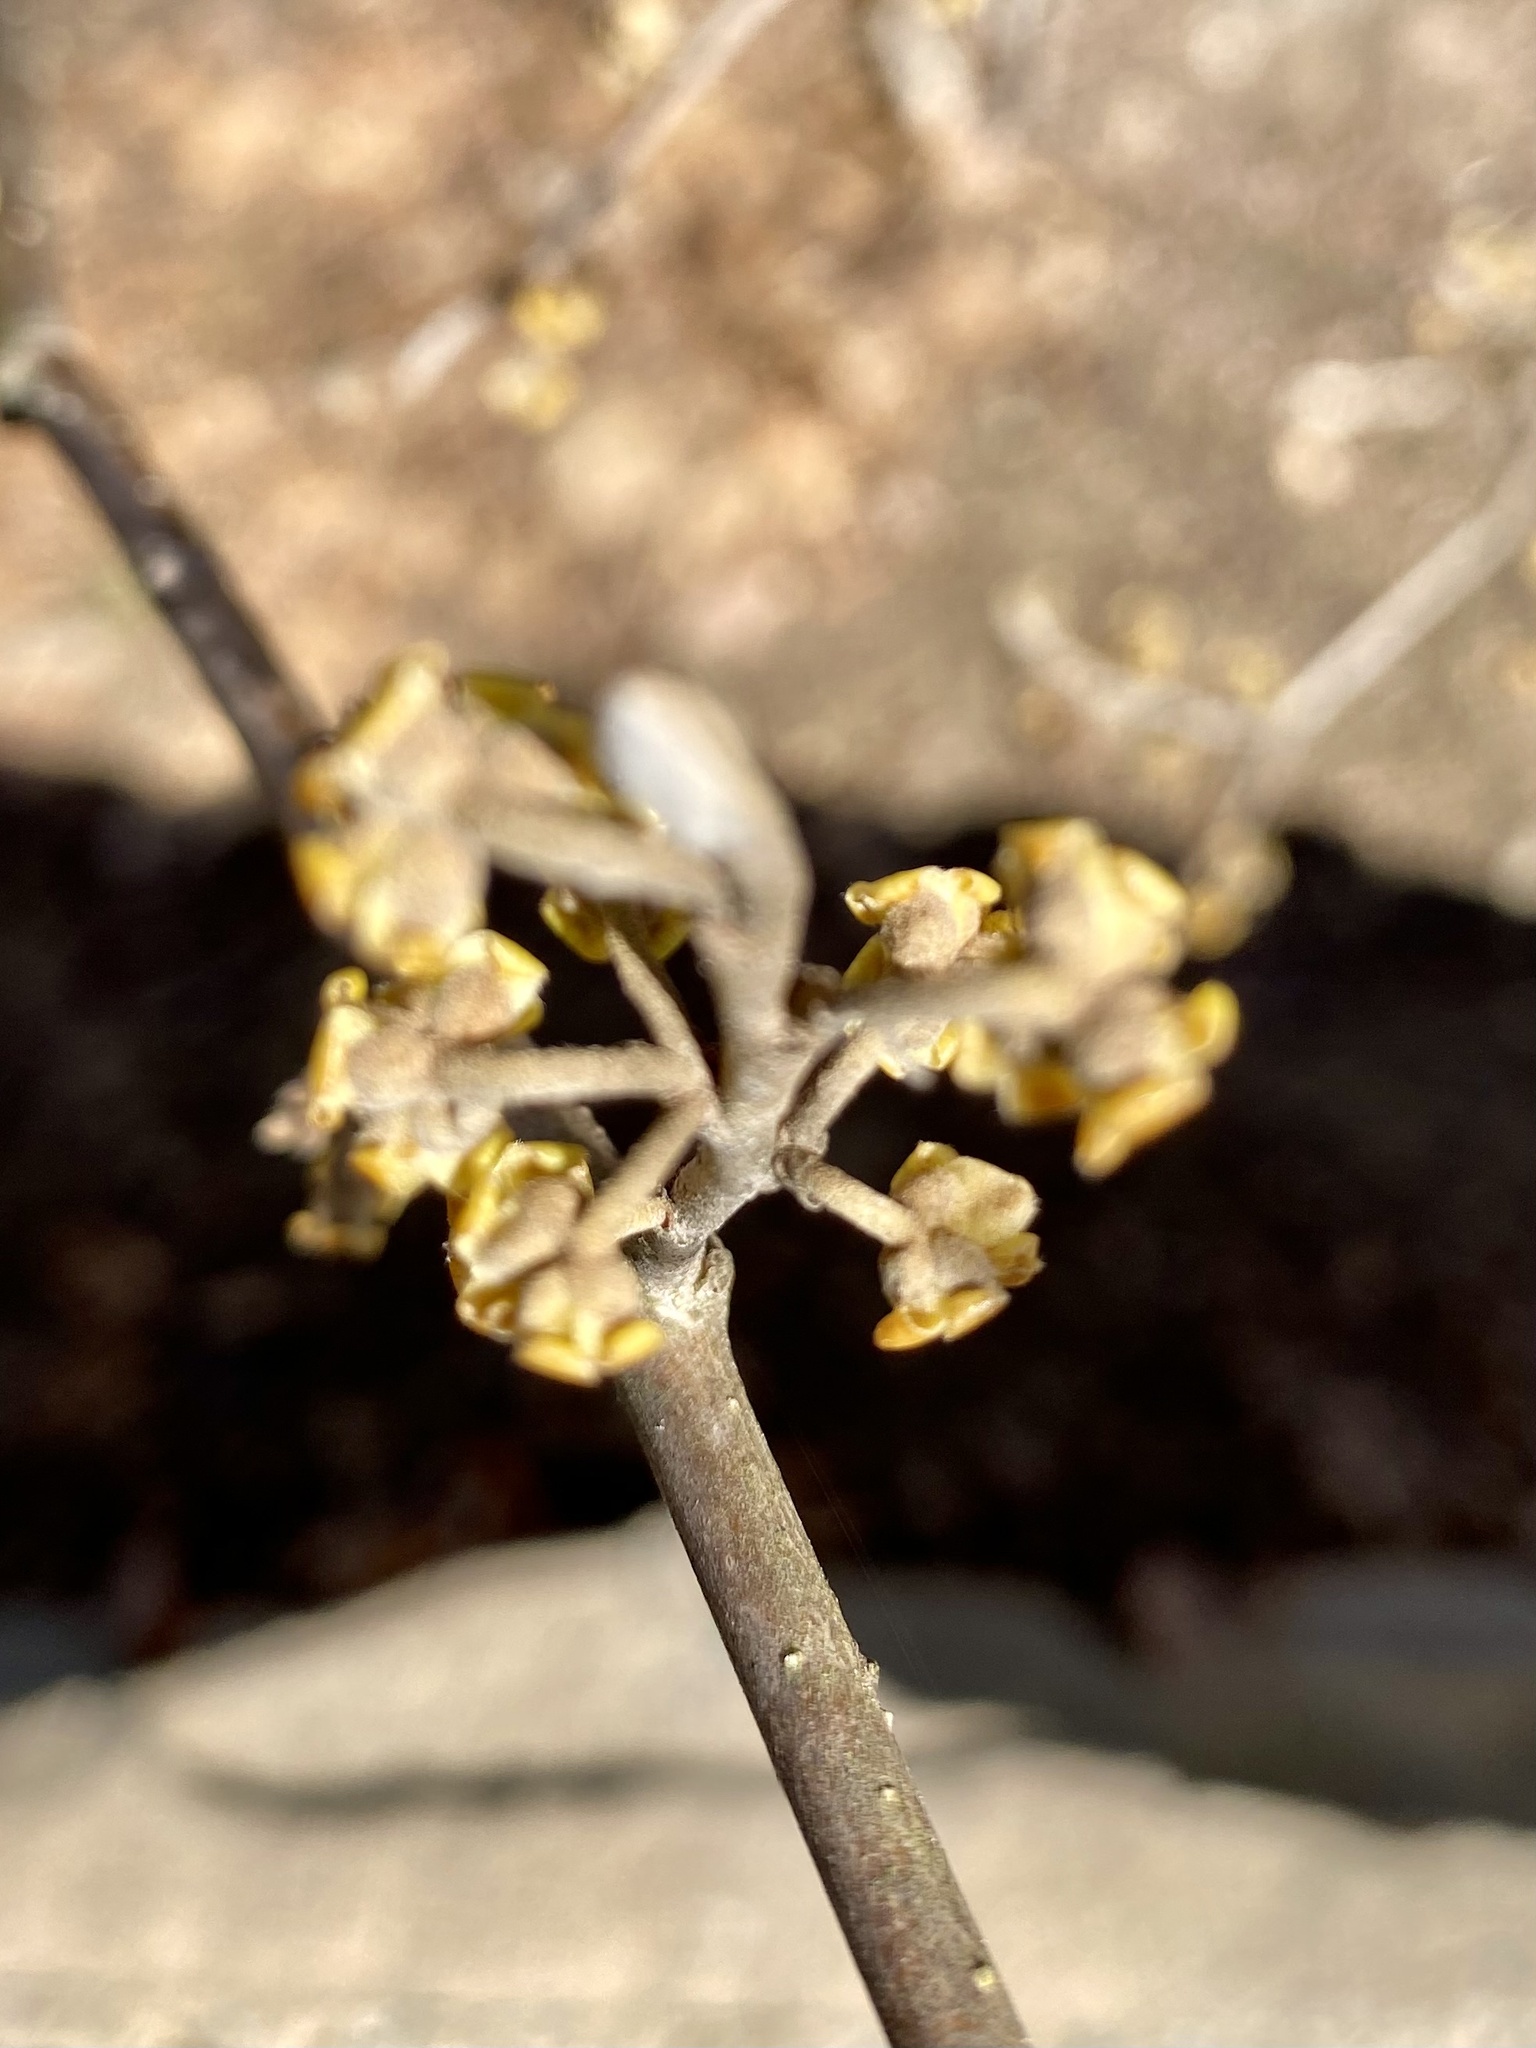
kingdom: Plantae
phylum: Tracheophyta
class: Magnoliopsida
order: Saxifragales
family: Hamamelidaceae
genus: Hamamelis
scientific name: Hamamelis virginiana
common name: Witch-hazel
